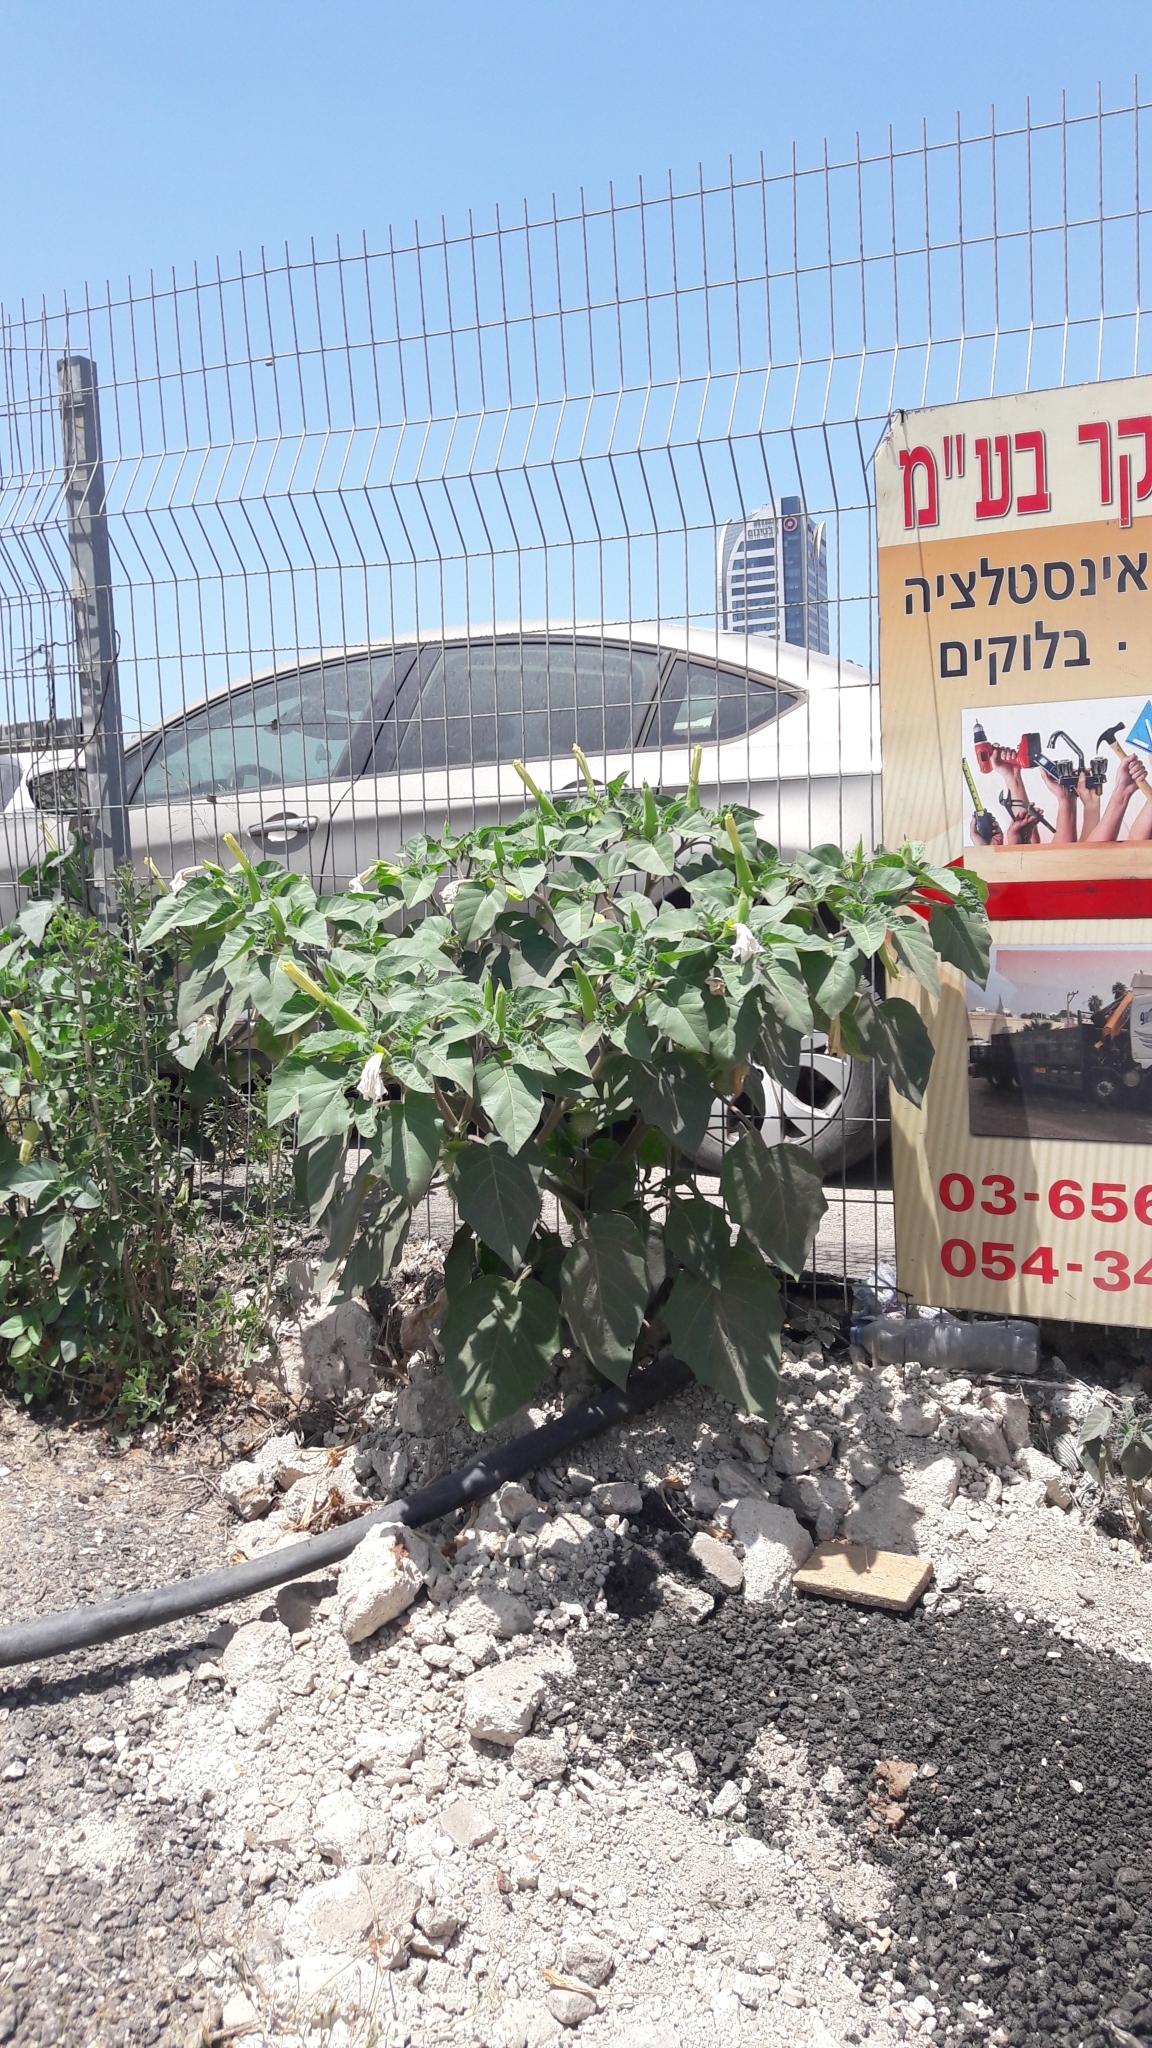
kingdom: Plantae
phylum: Tracheophyta
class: Magnoliopsida
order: Solanales
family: Solanaceae
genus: Datura
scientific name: Datura innoxia
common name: Downy thorn-apple
